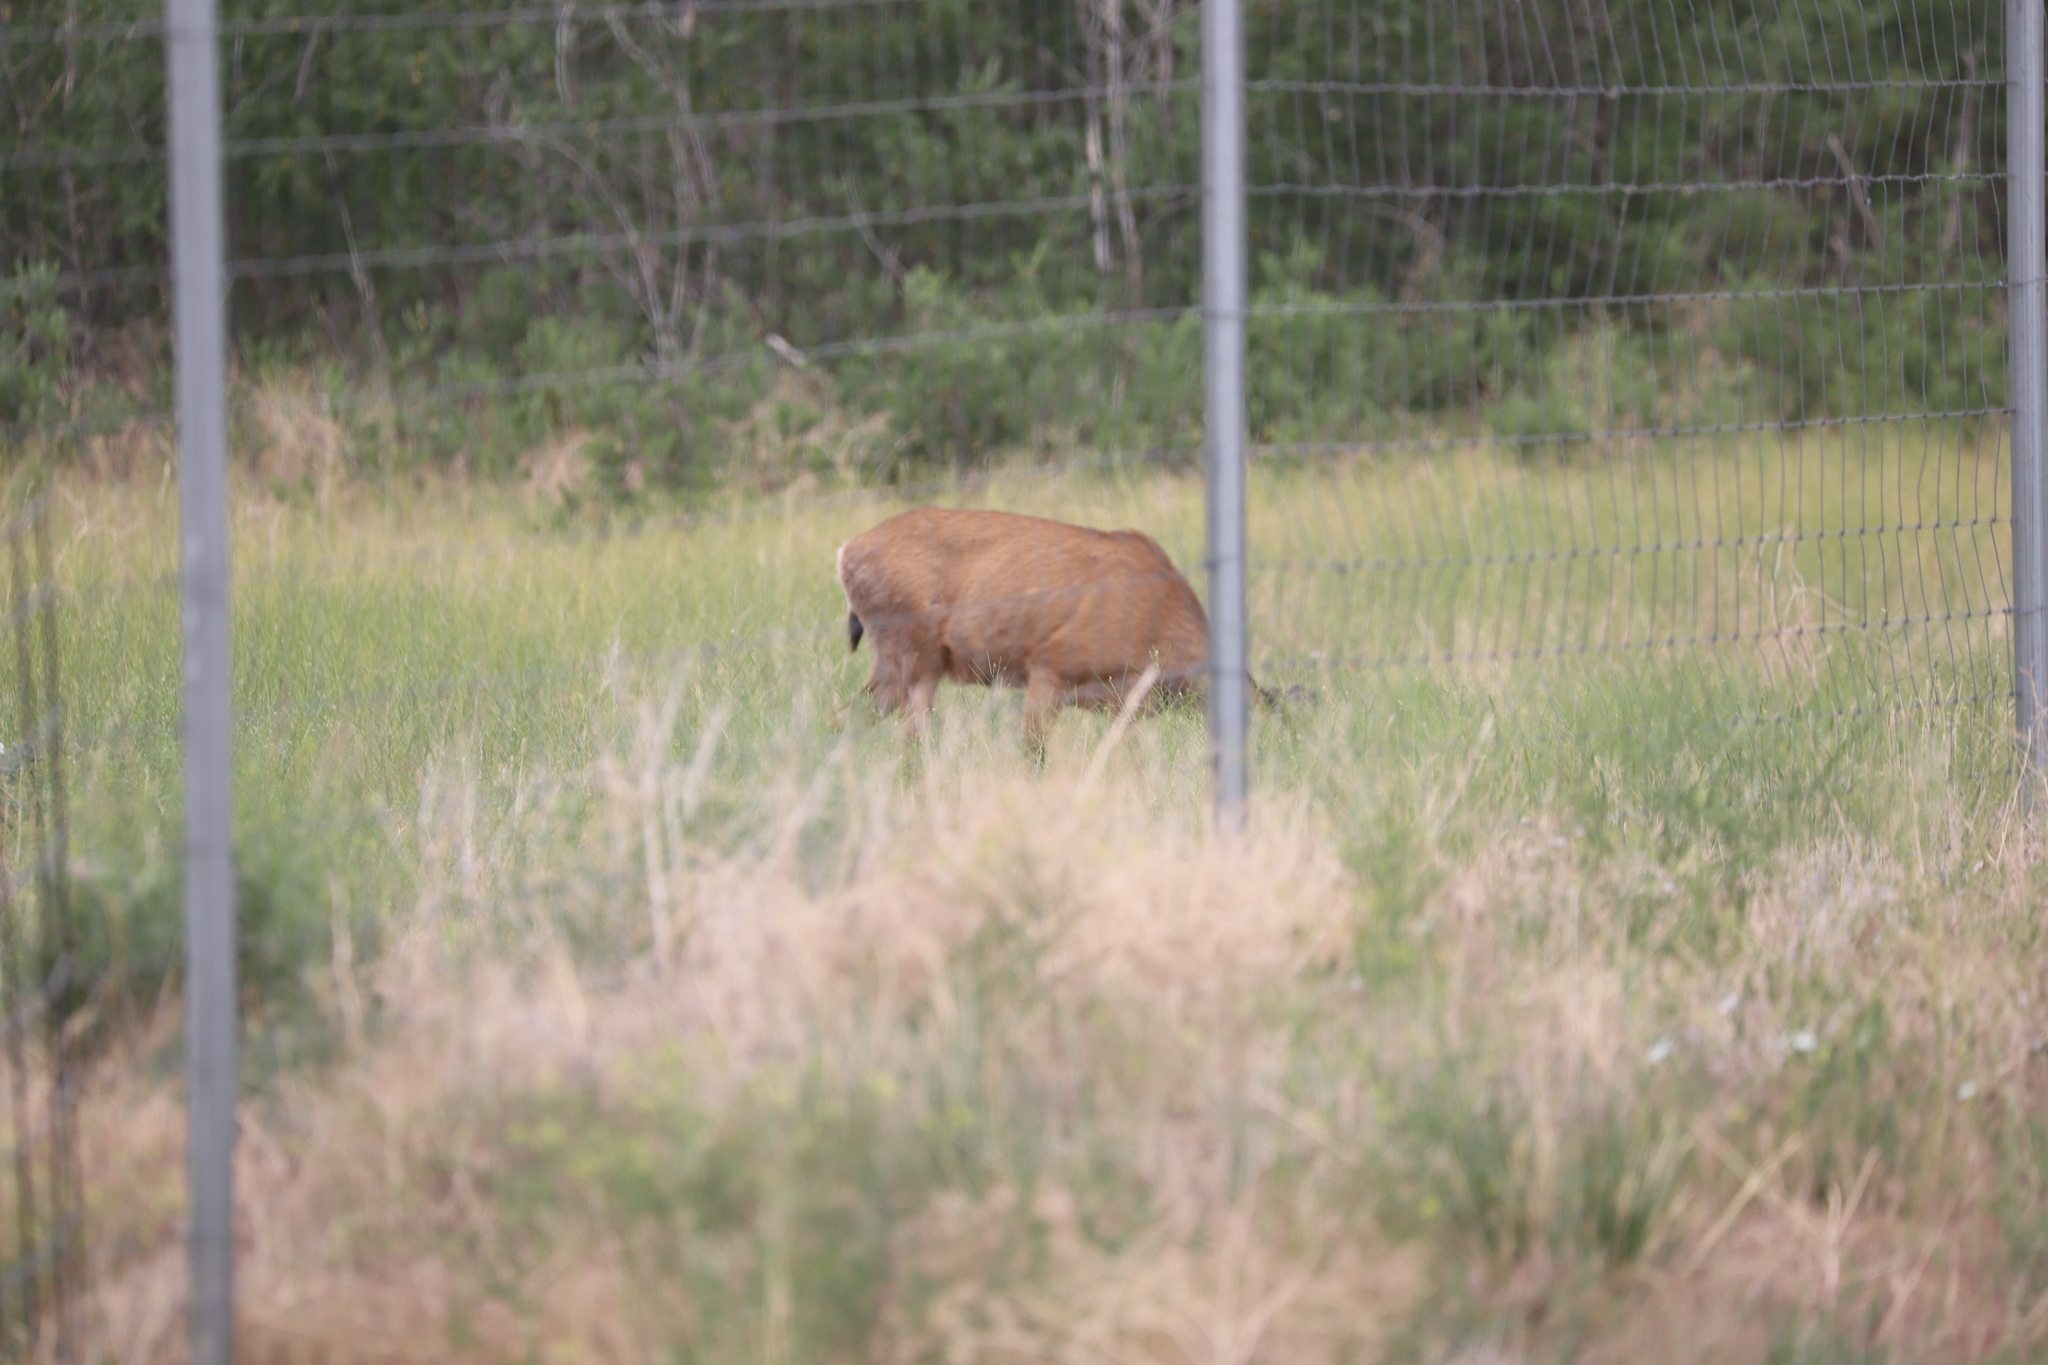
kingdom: Animalia
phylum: Chordata
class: Mammalia
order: Artiodactyla
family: Cervidae
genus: Odocoileus
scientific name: Odocoileus hemionus
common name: Mule deer
